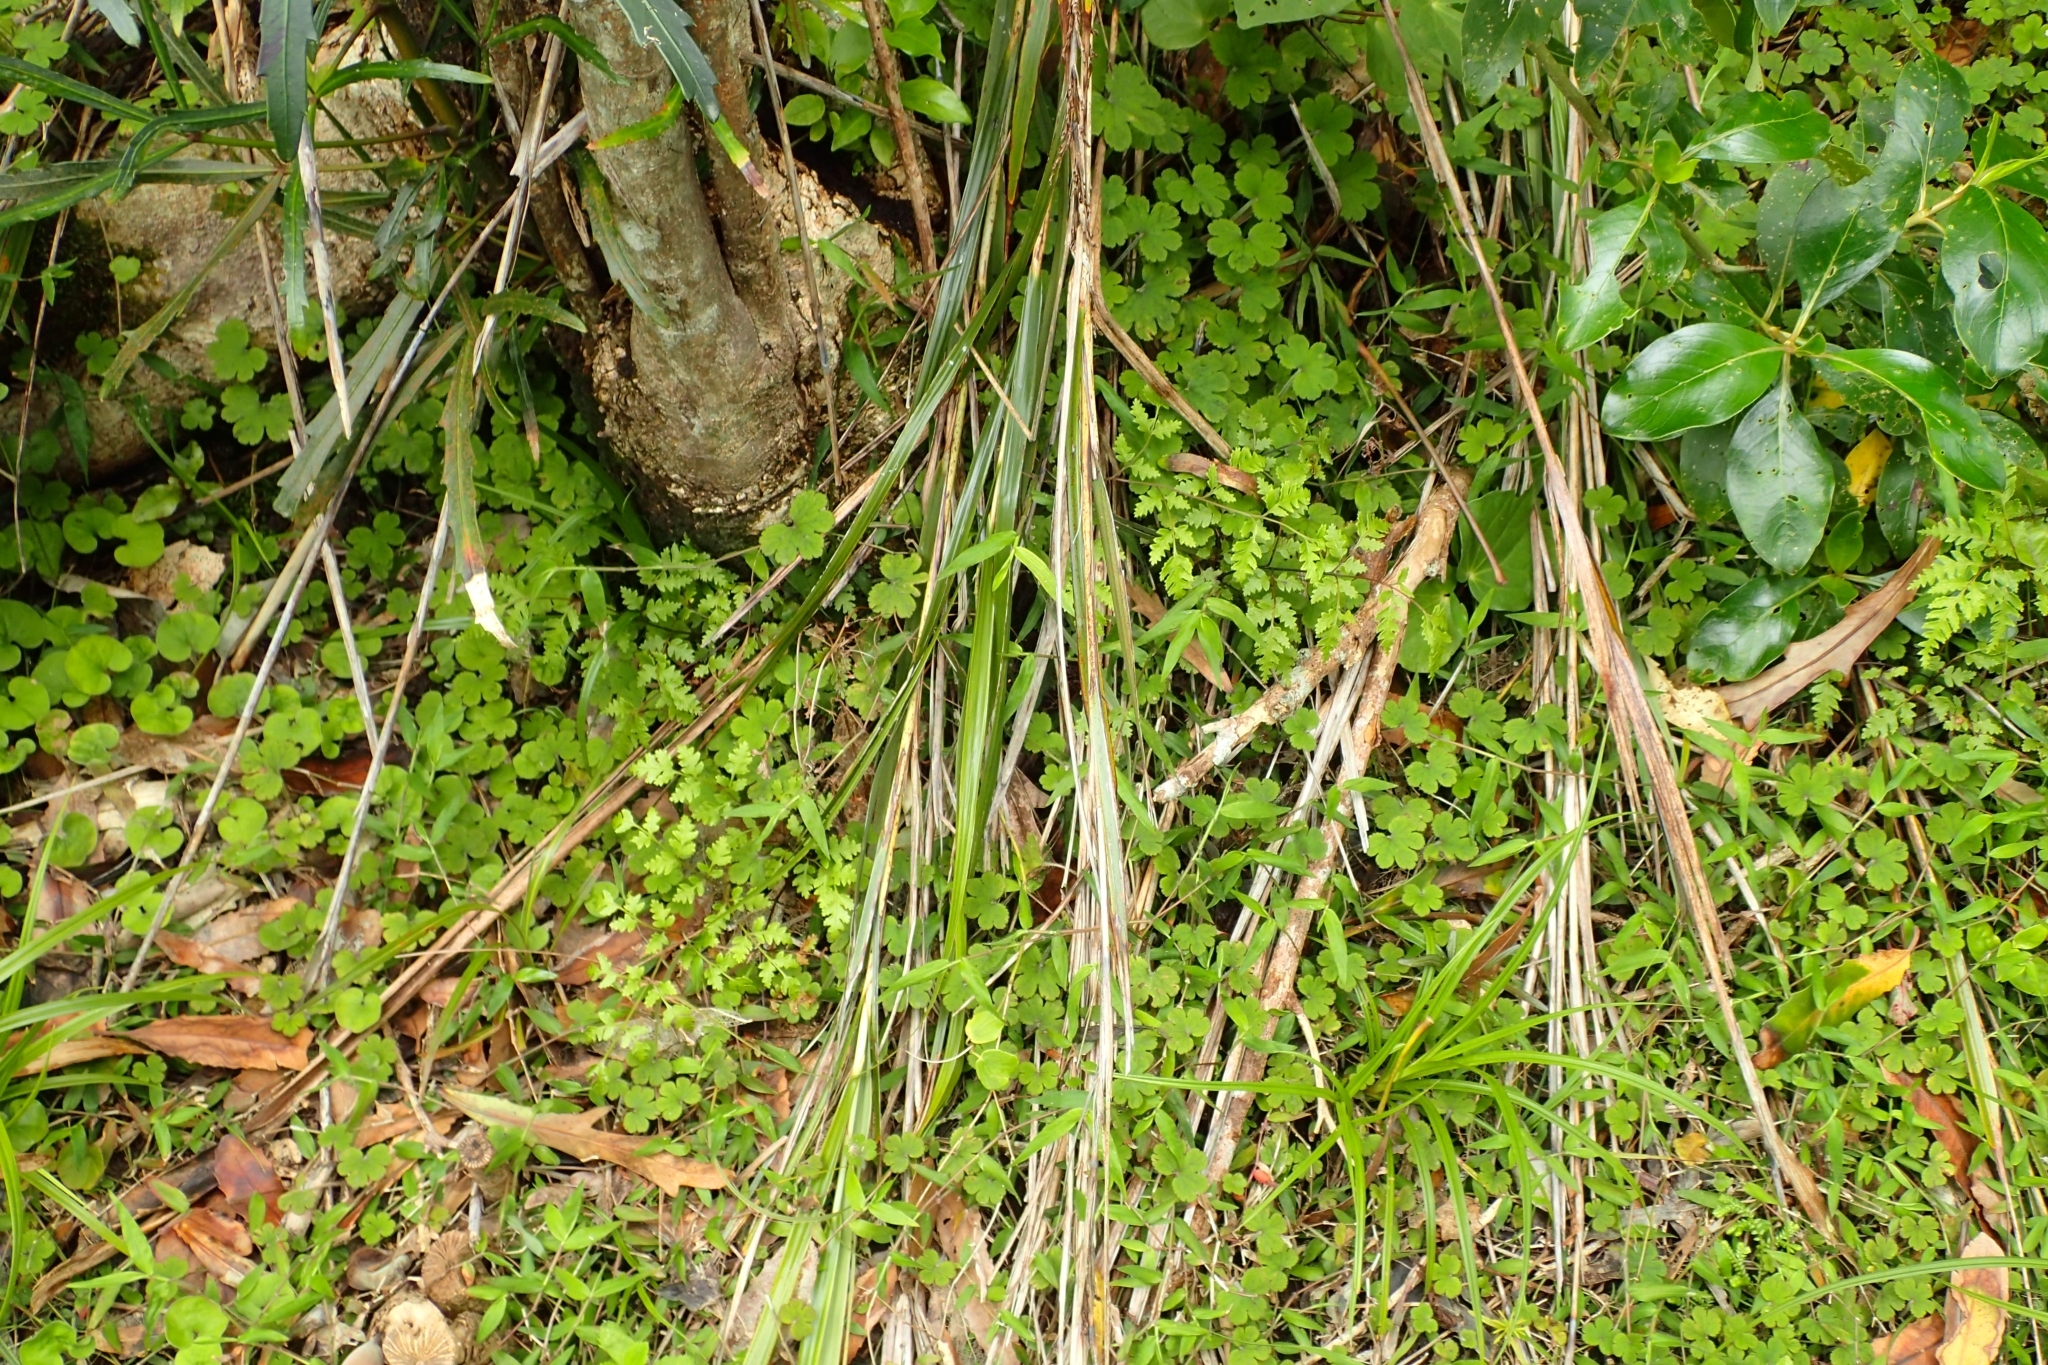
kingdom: Plantae
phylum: Tracheophyta
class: Polypodiopsida
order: Polypodiales
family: Pteridaceae
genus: Pteris
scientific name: Pteris saxatilis
